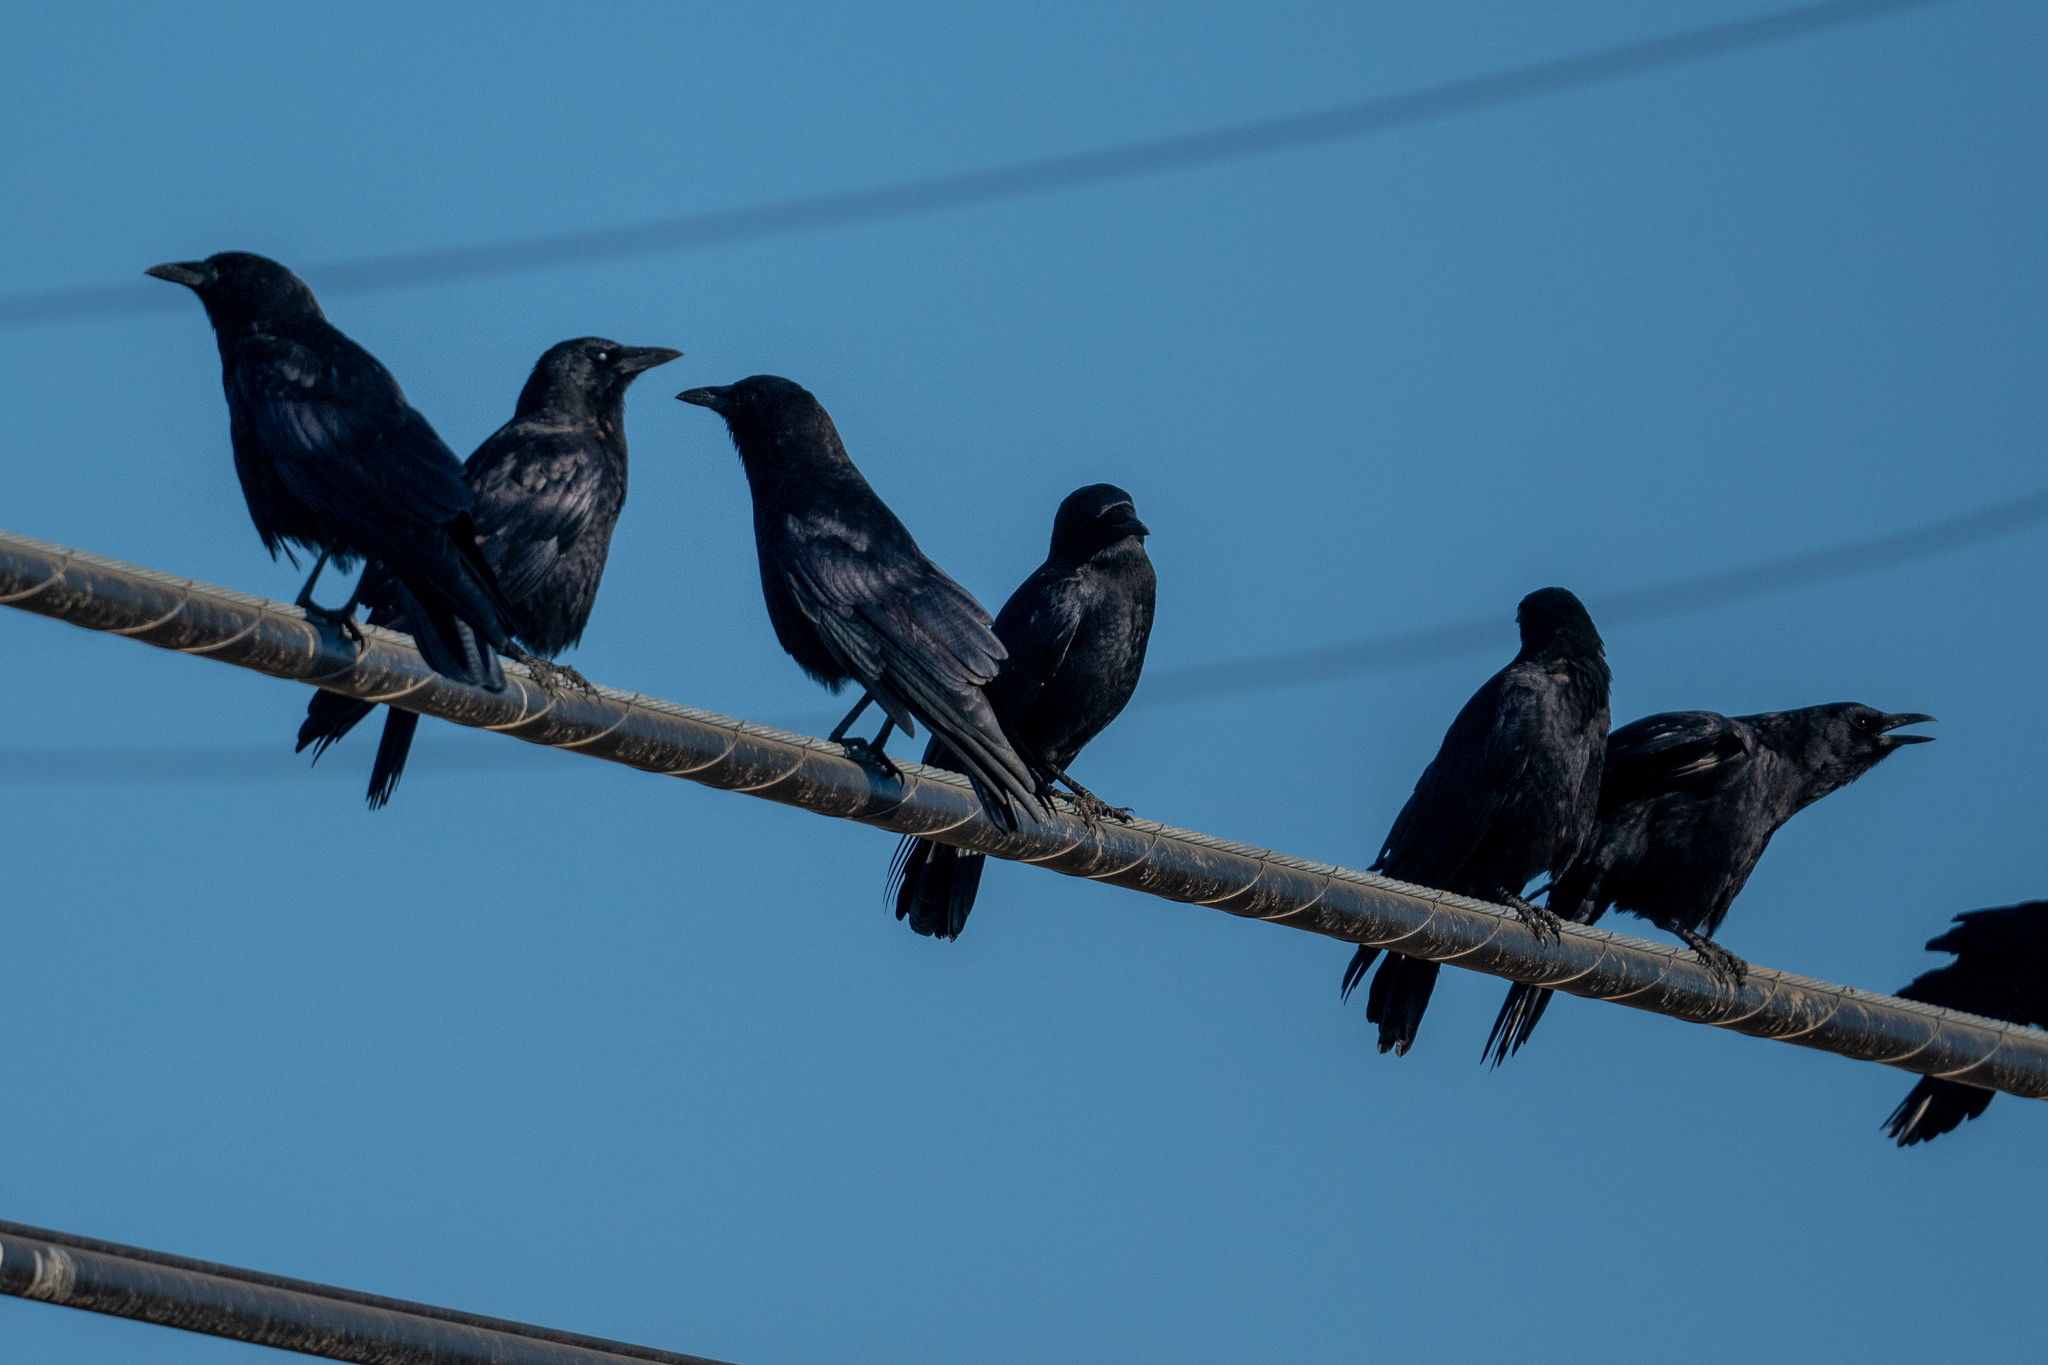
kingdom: Animalia
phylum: Chordata
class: Aves
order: Passeriformes
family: Corvidae
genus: Corvus
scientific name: Corvus brachyrhynchos
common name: American crow
